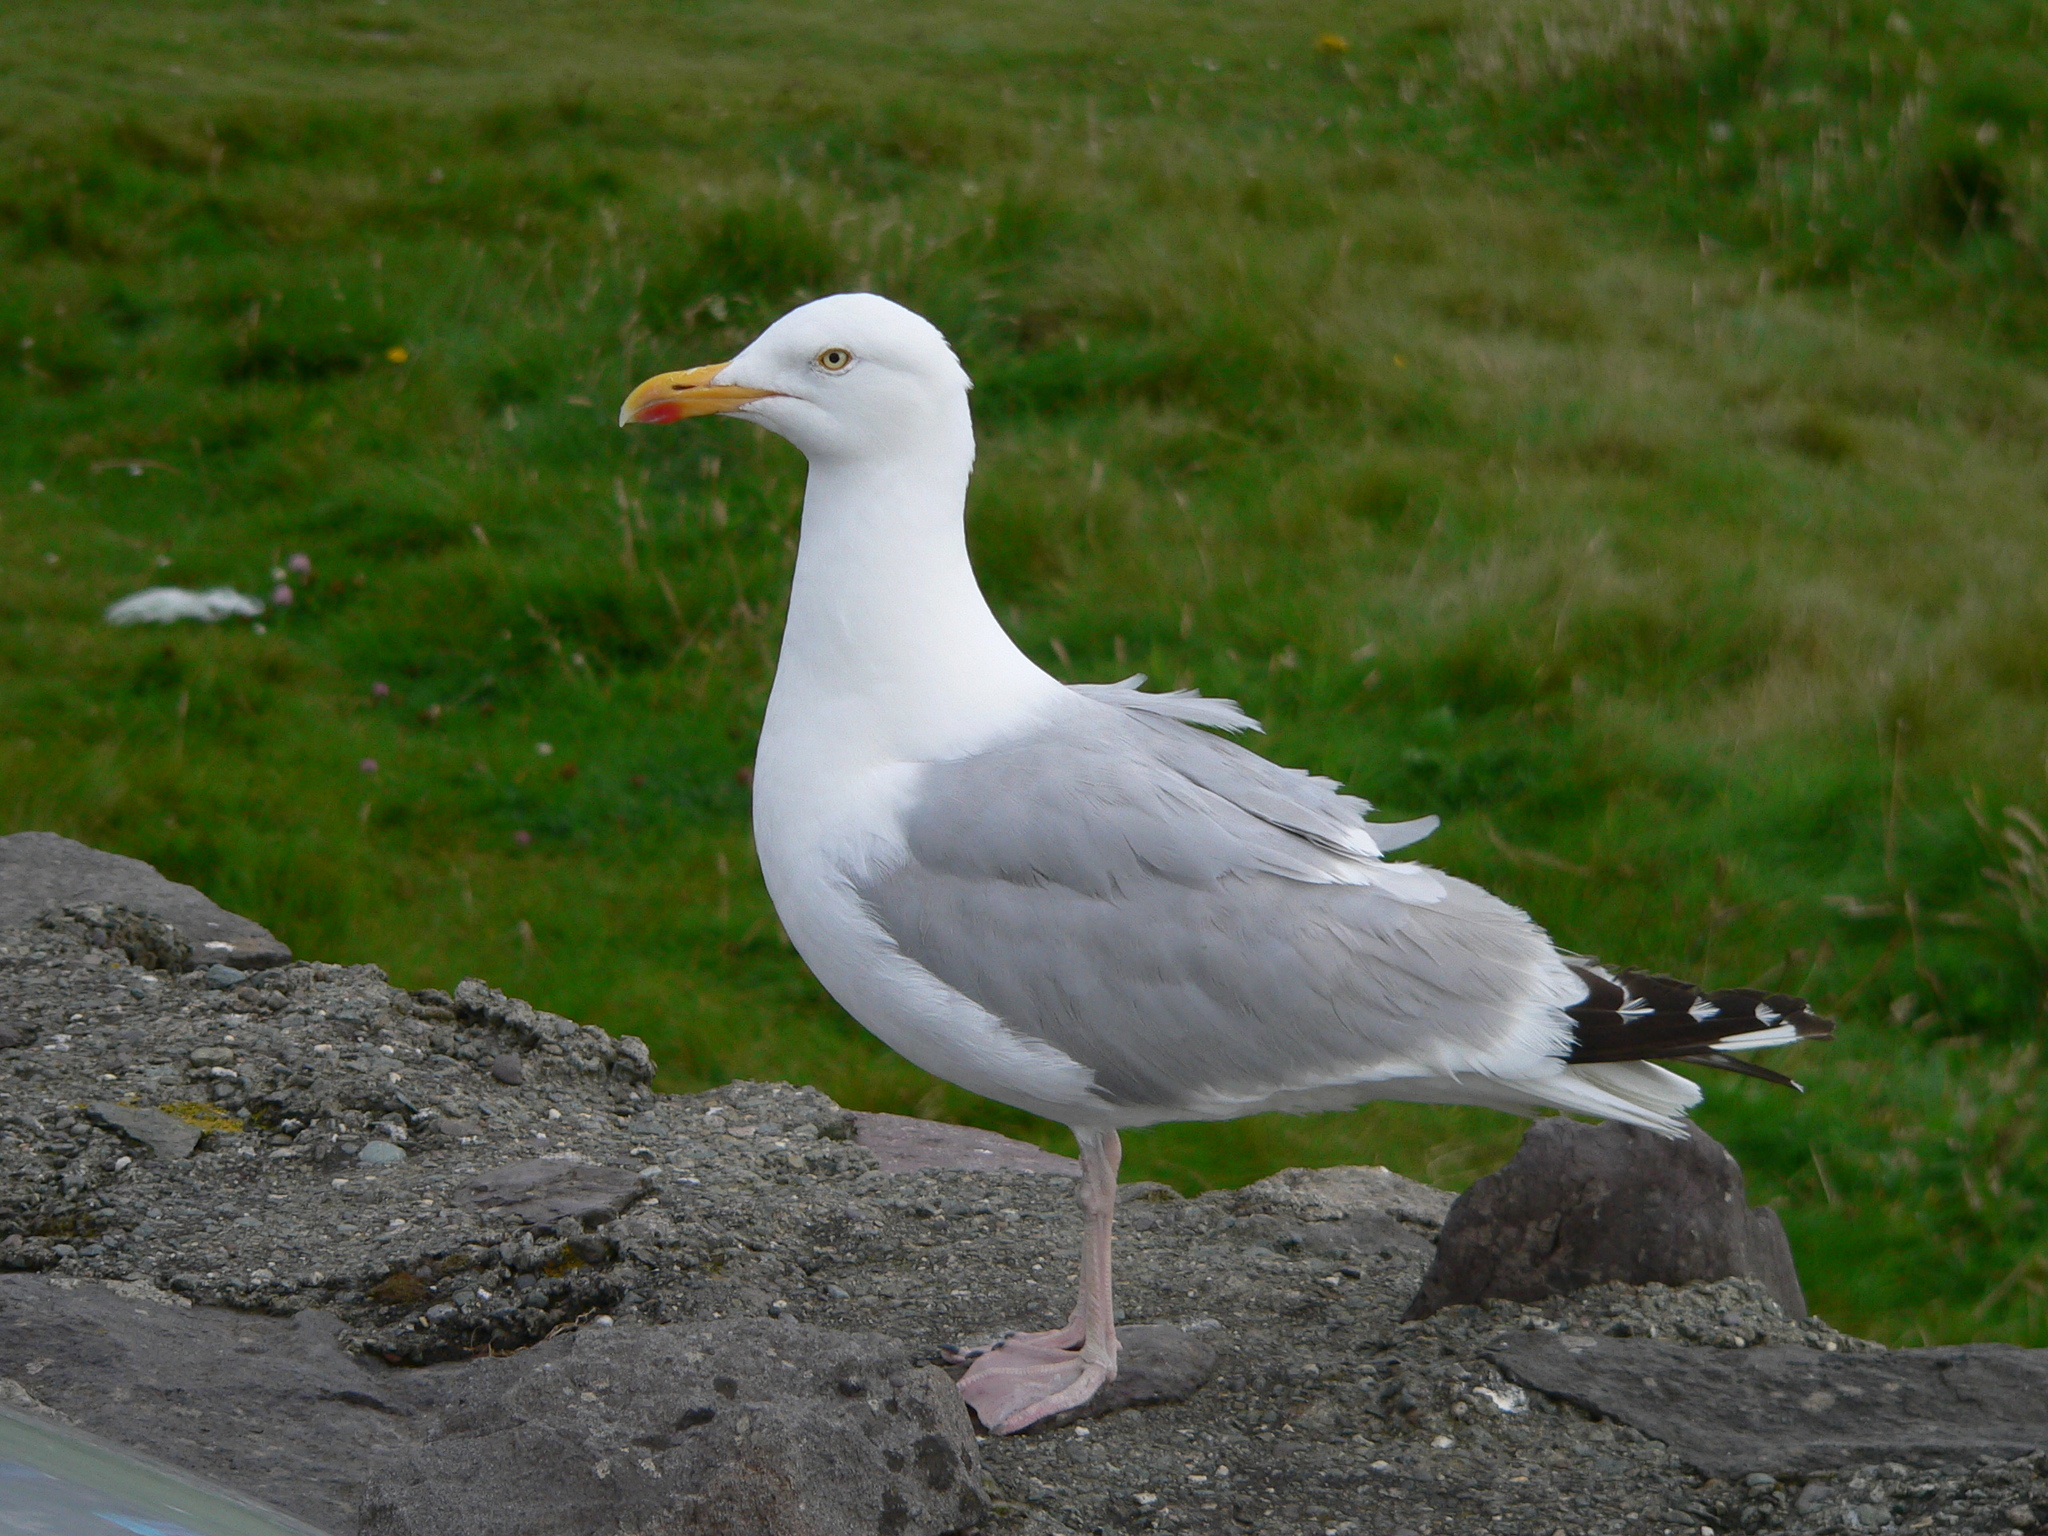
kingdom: Animalia
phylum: Chordata
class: Aves
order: Charadriiformes
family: Laridae
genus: Larus
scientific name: Larus argentatus
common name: Herring gull
